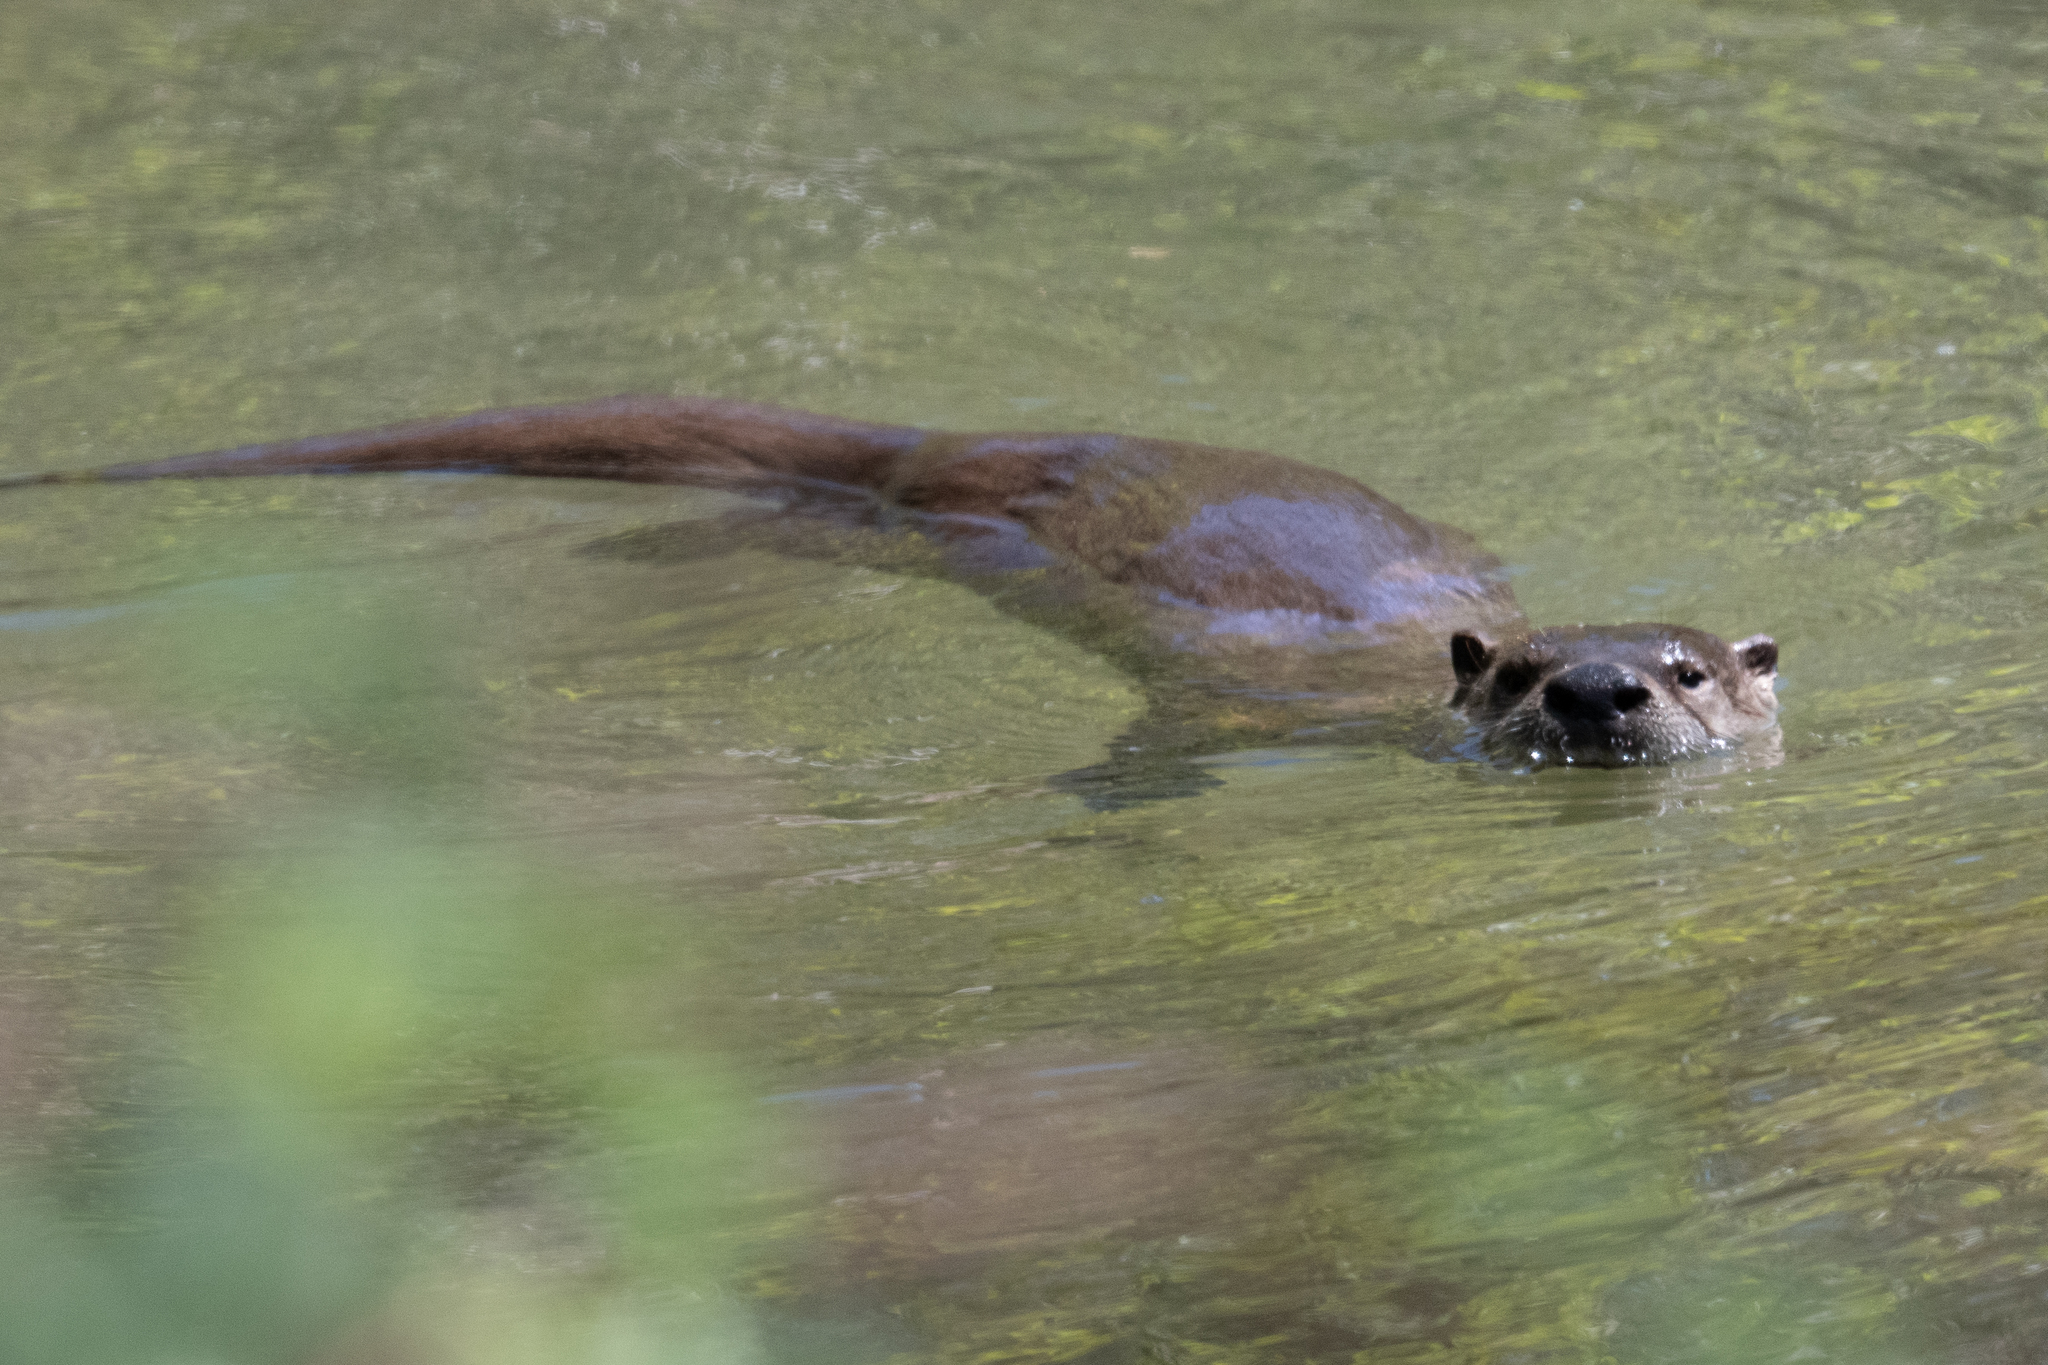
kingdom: Animalia
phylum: Chordata
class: Mammalia
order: Carnivora
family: Mustelidae
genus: Lontra
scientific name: Lontra canadensis
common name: North american river otter
